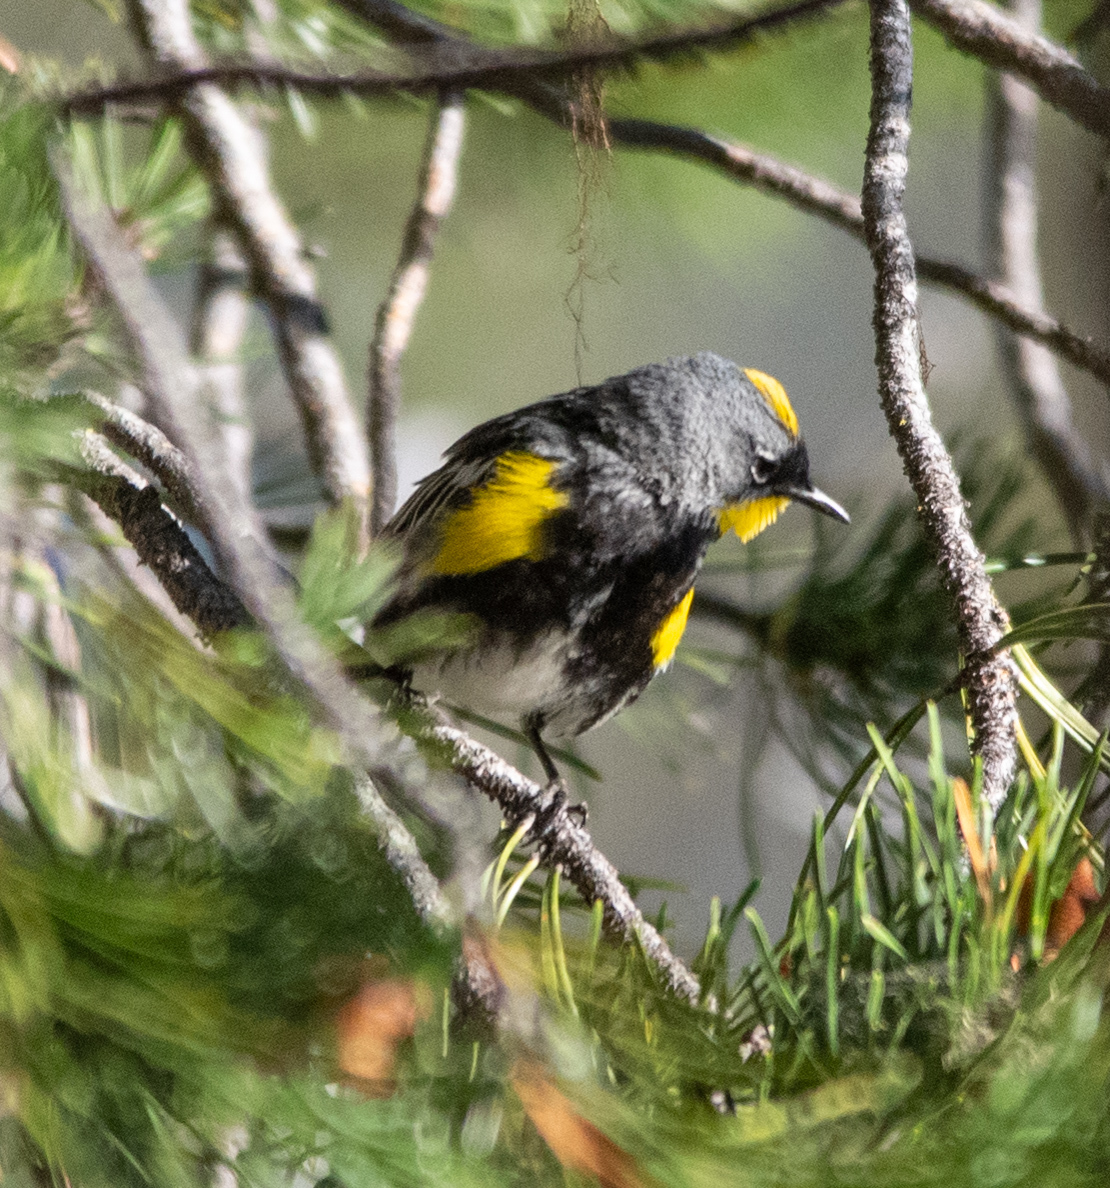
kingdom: Animalia
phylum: Chordata
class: Aves
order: Passeriformes
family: Parulidae
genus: Setophaga
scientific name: Setophaga auduboni
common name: Audubon's warbler
